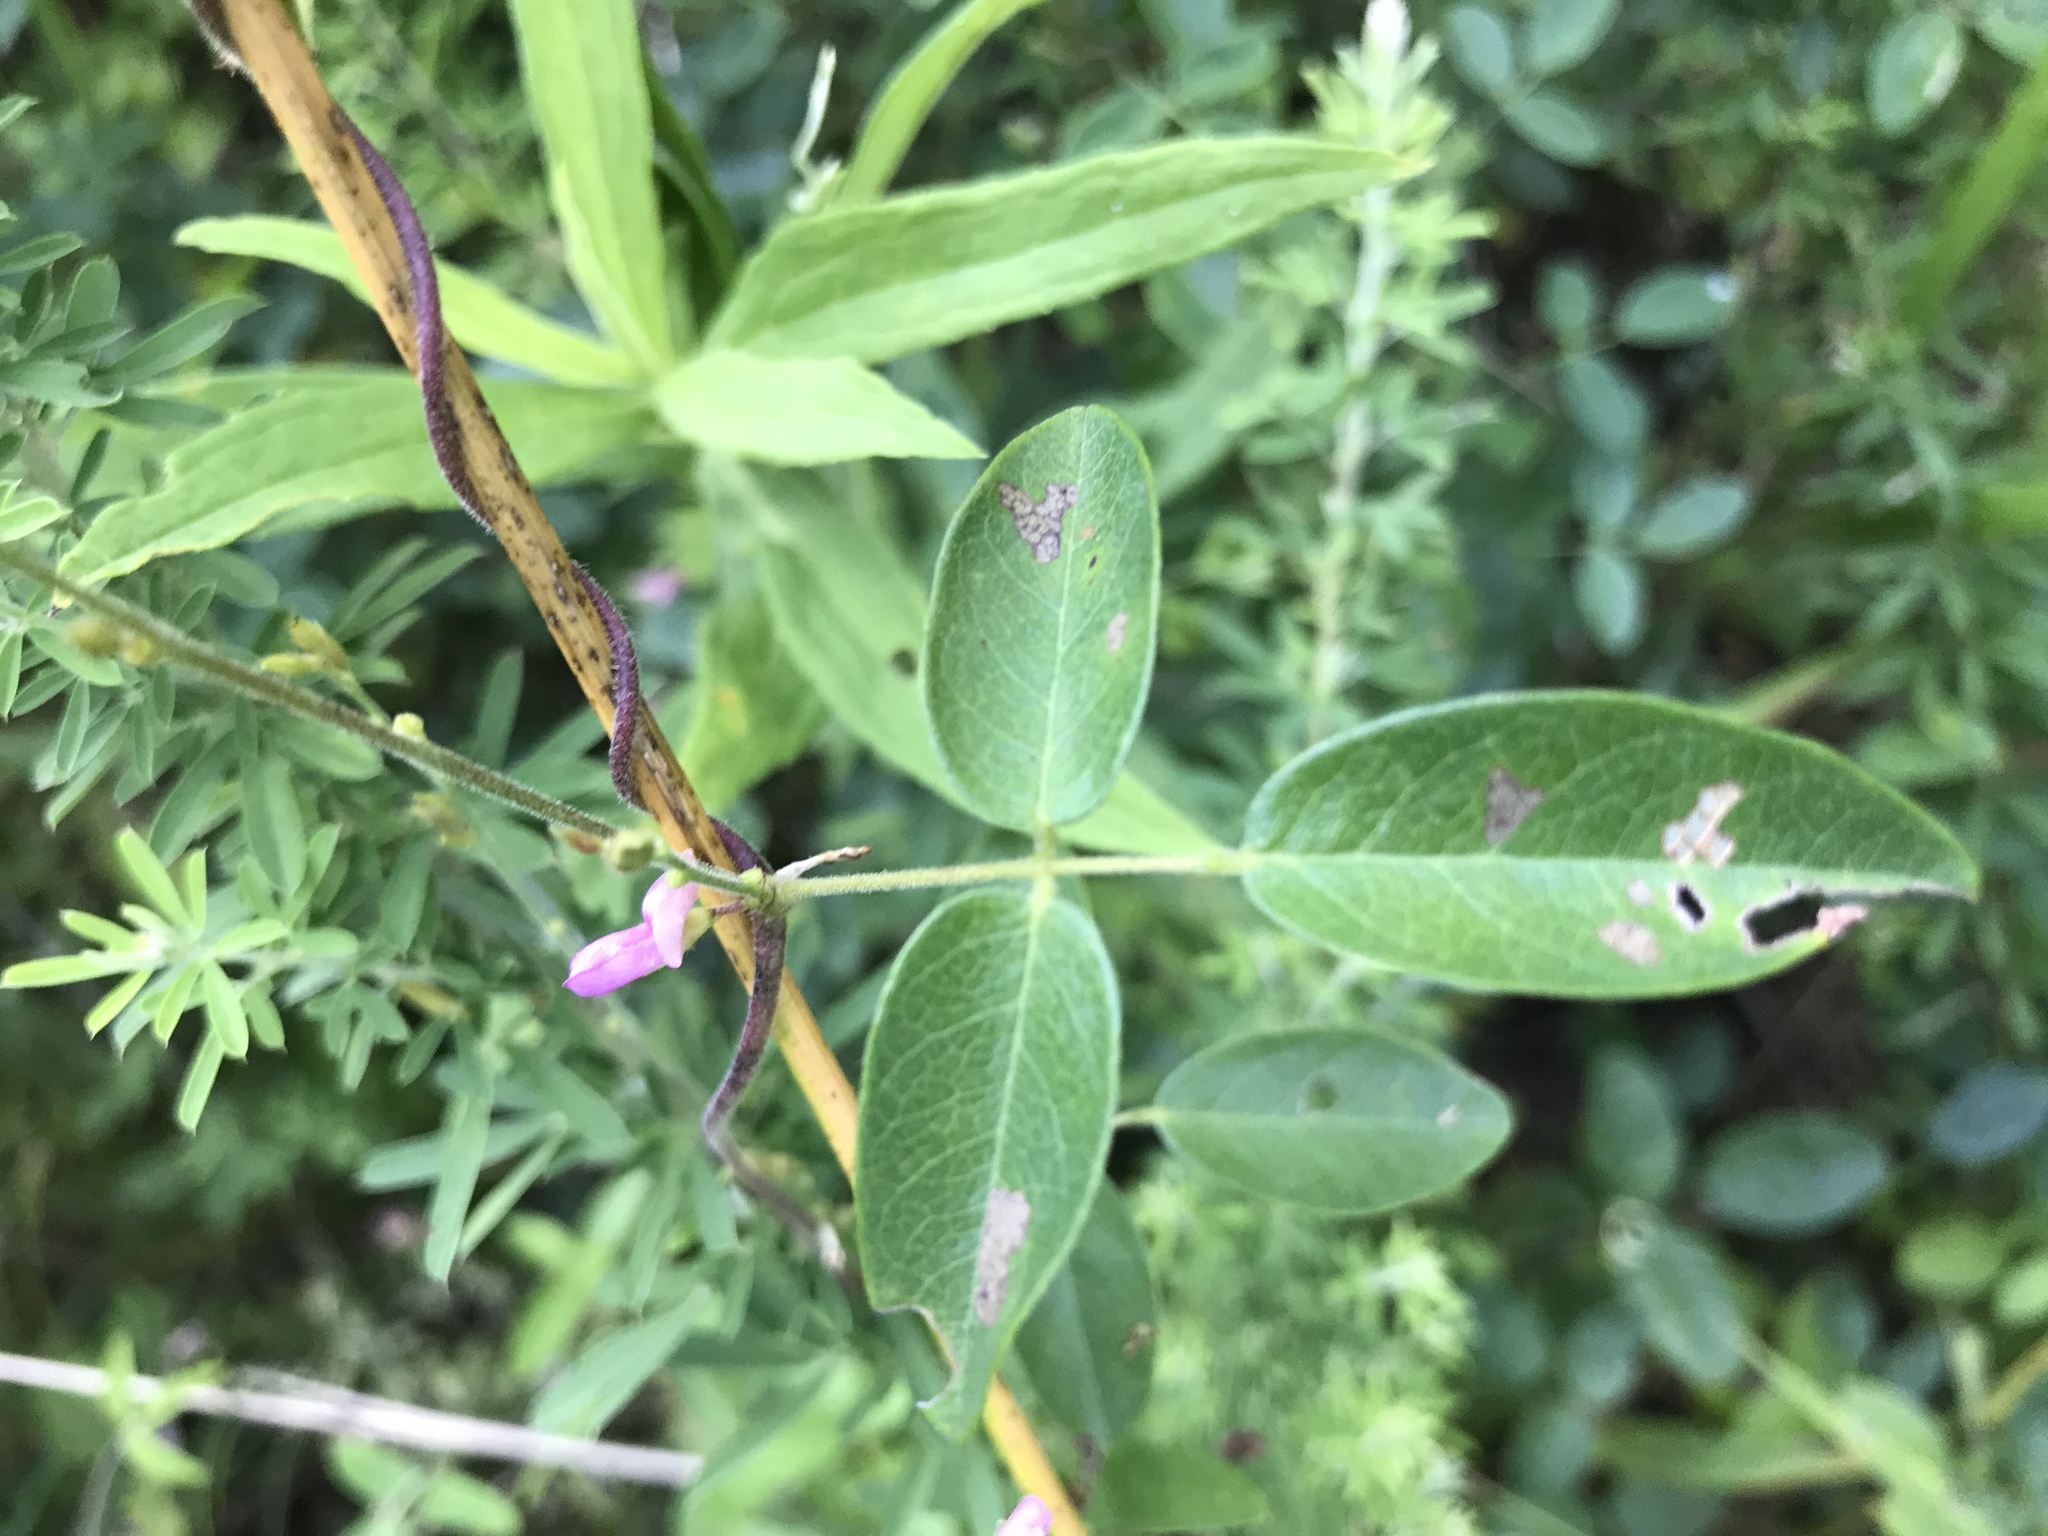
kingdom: Plantae
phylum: Tracheophyta
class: Magnoliopsida
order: Fabales
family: Fabaceae
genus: Galactia
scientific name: Galactia regularis
